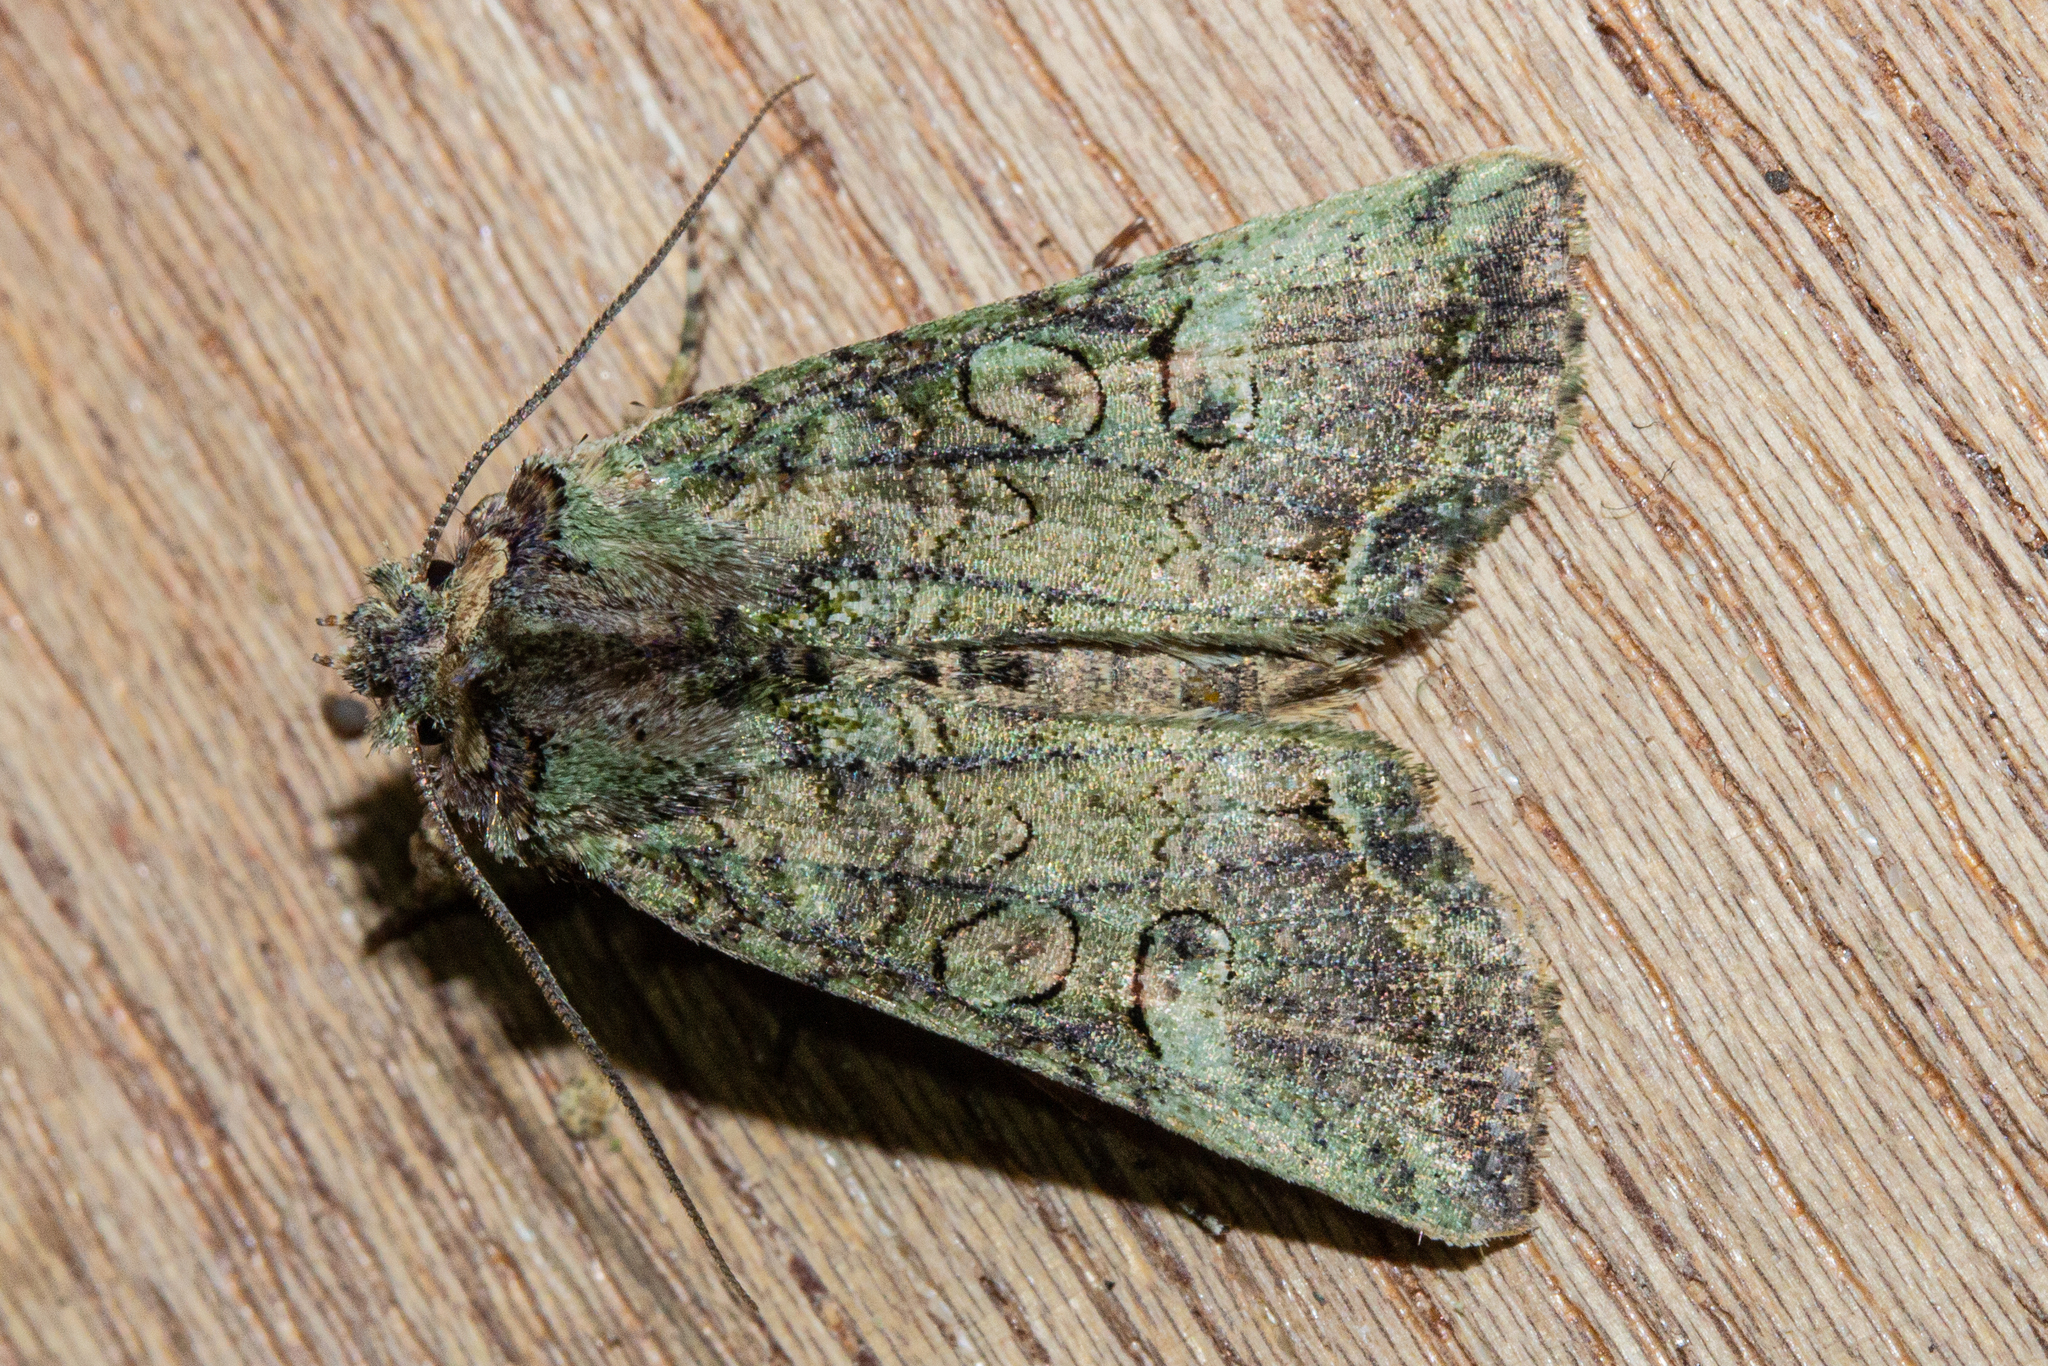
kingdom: Animalia
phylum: Arthropoda
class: Insecta
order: Lepidoptera
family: Noctuidae
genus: Meterana
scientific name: Meterana levis
